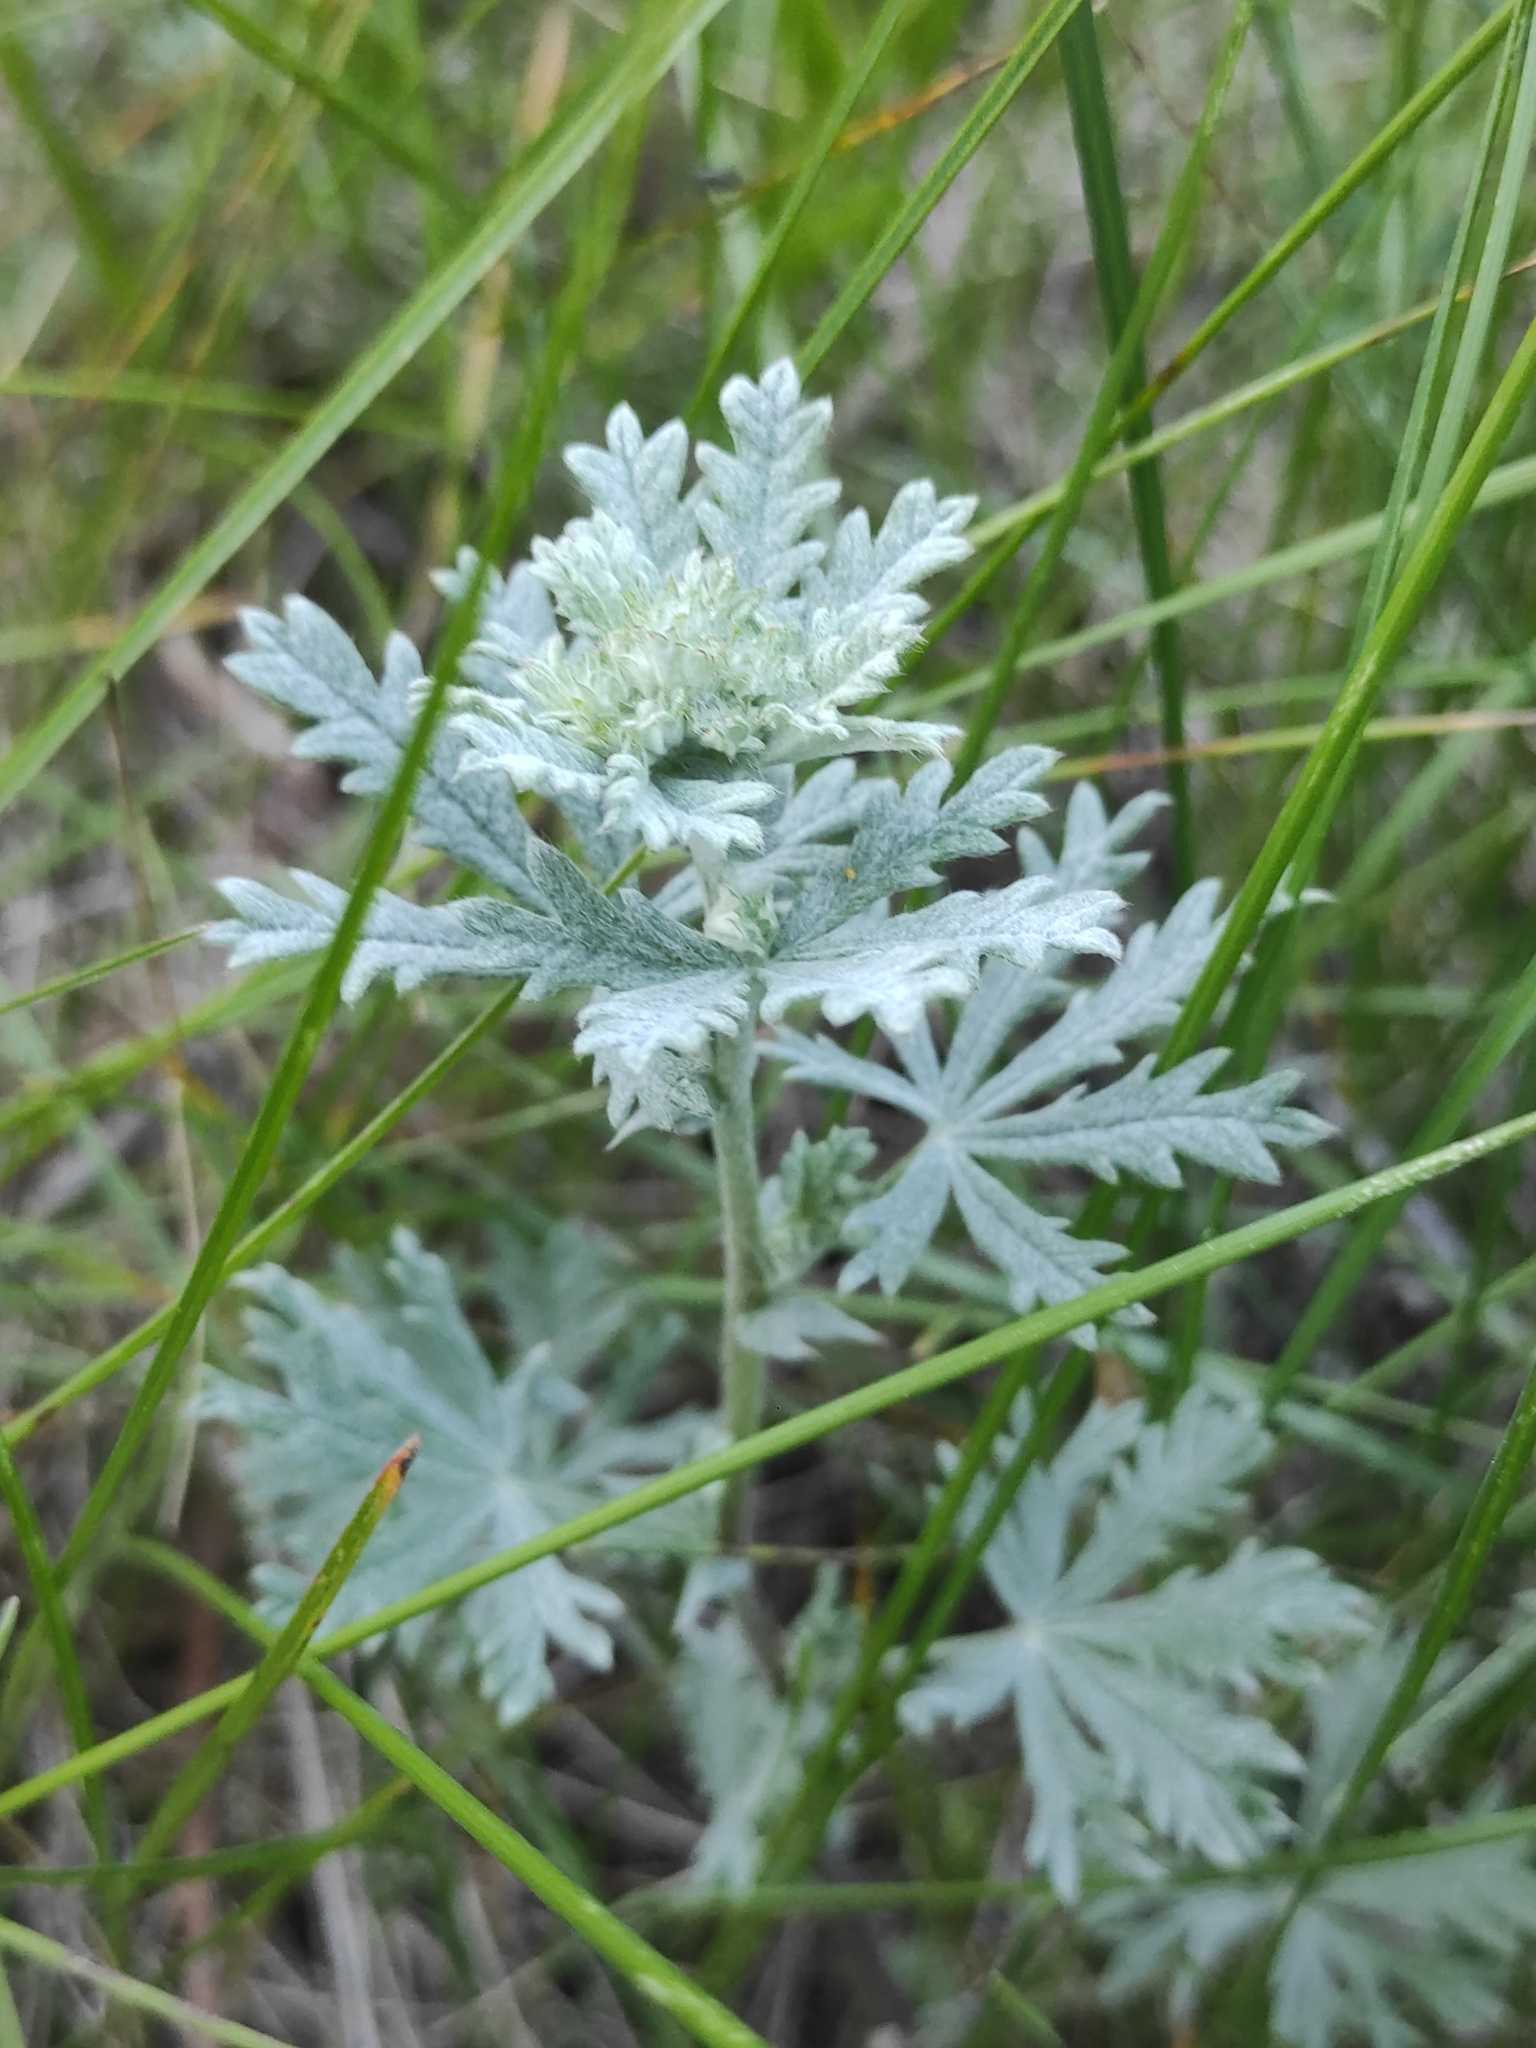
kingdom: Plantae
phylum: Tracheophyta
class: Magnoliopsida
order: Rosales
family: Rosaceae
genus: Potentilla
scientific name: Potentilla argentea
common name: Hoary cinquefoil
